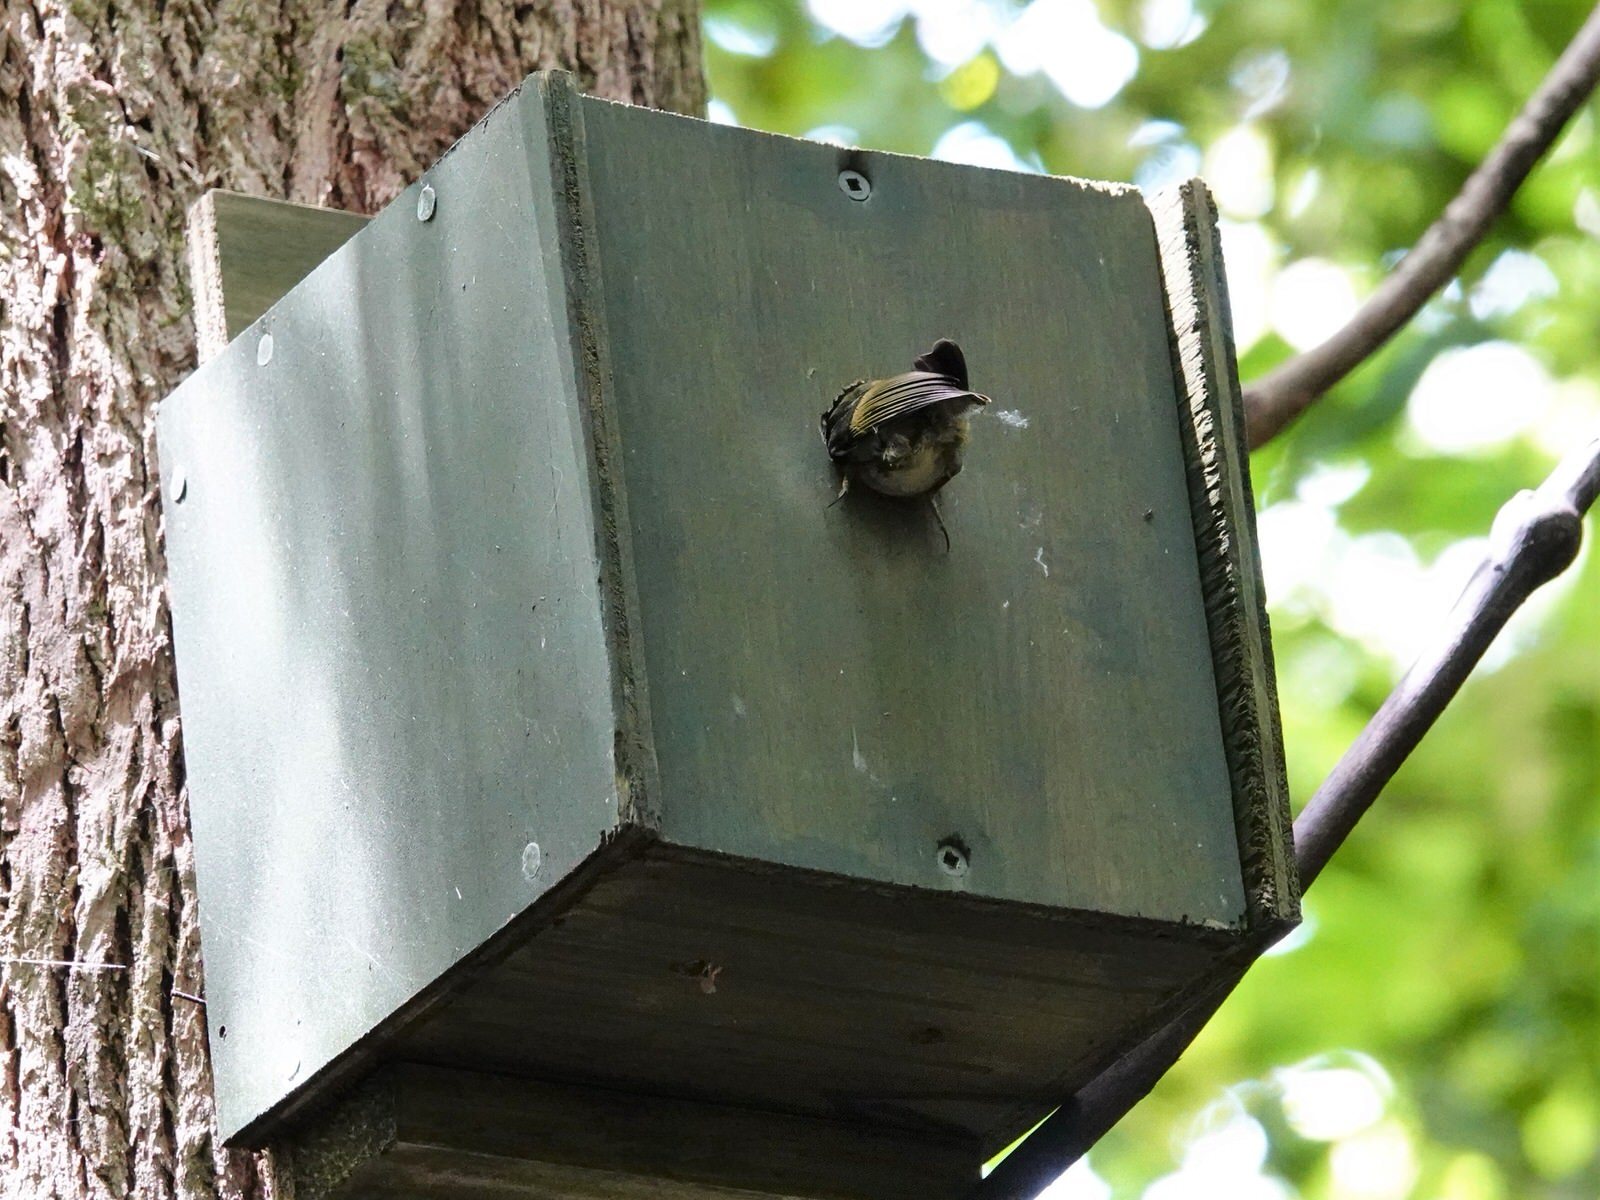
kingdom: Animalia
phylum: Chordata
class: Aves
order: Passeriformes
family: Acanthisittidae
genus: Acanthisitta
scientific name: Acanthisitta chloris
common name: Rifleman
